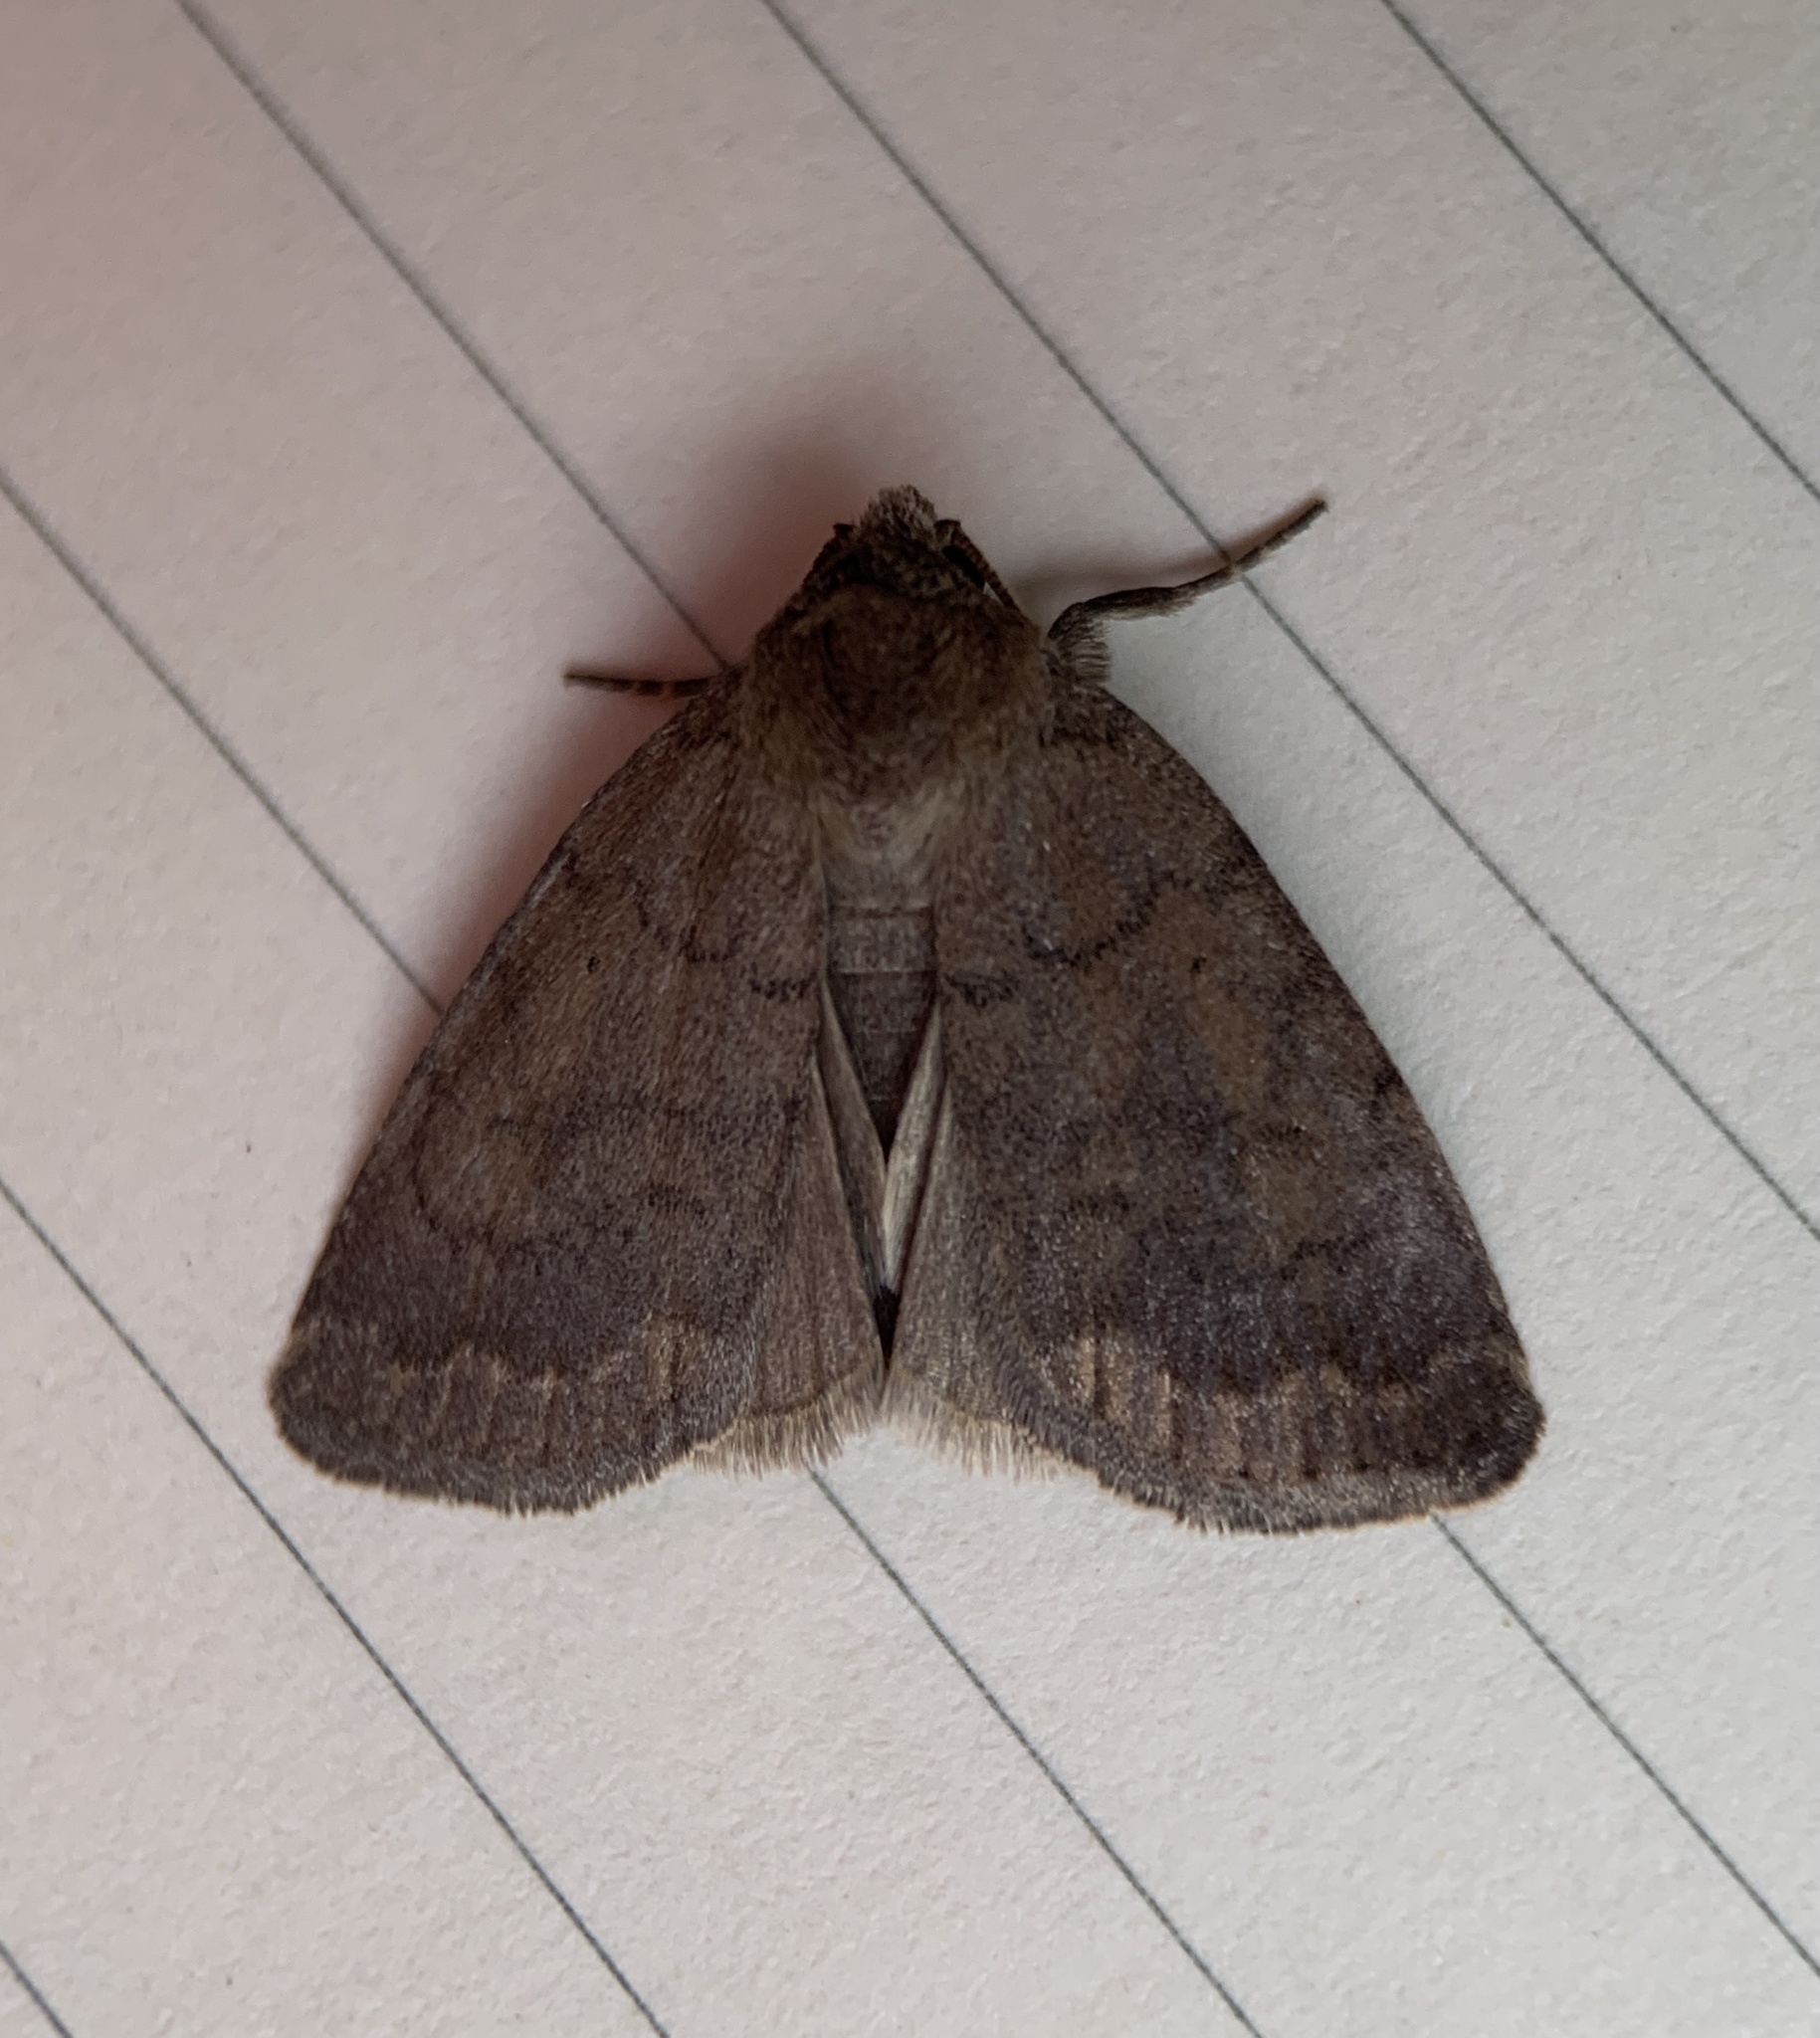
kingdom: Animalia
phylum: Arthropoda
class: Insecta
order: Lepidoptera
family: Noctuidae
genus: Athetis
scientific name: Athetis tarda
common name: Slowpoke moth
